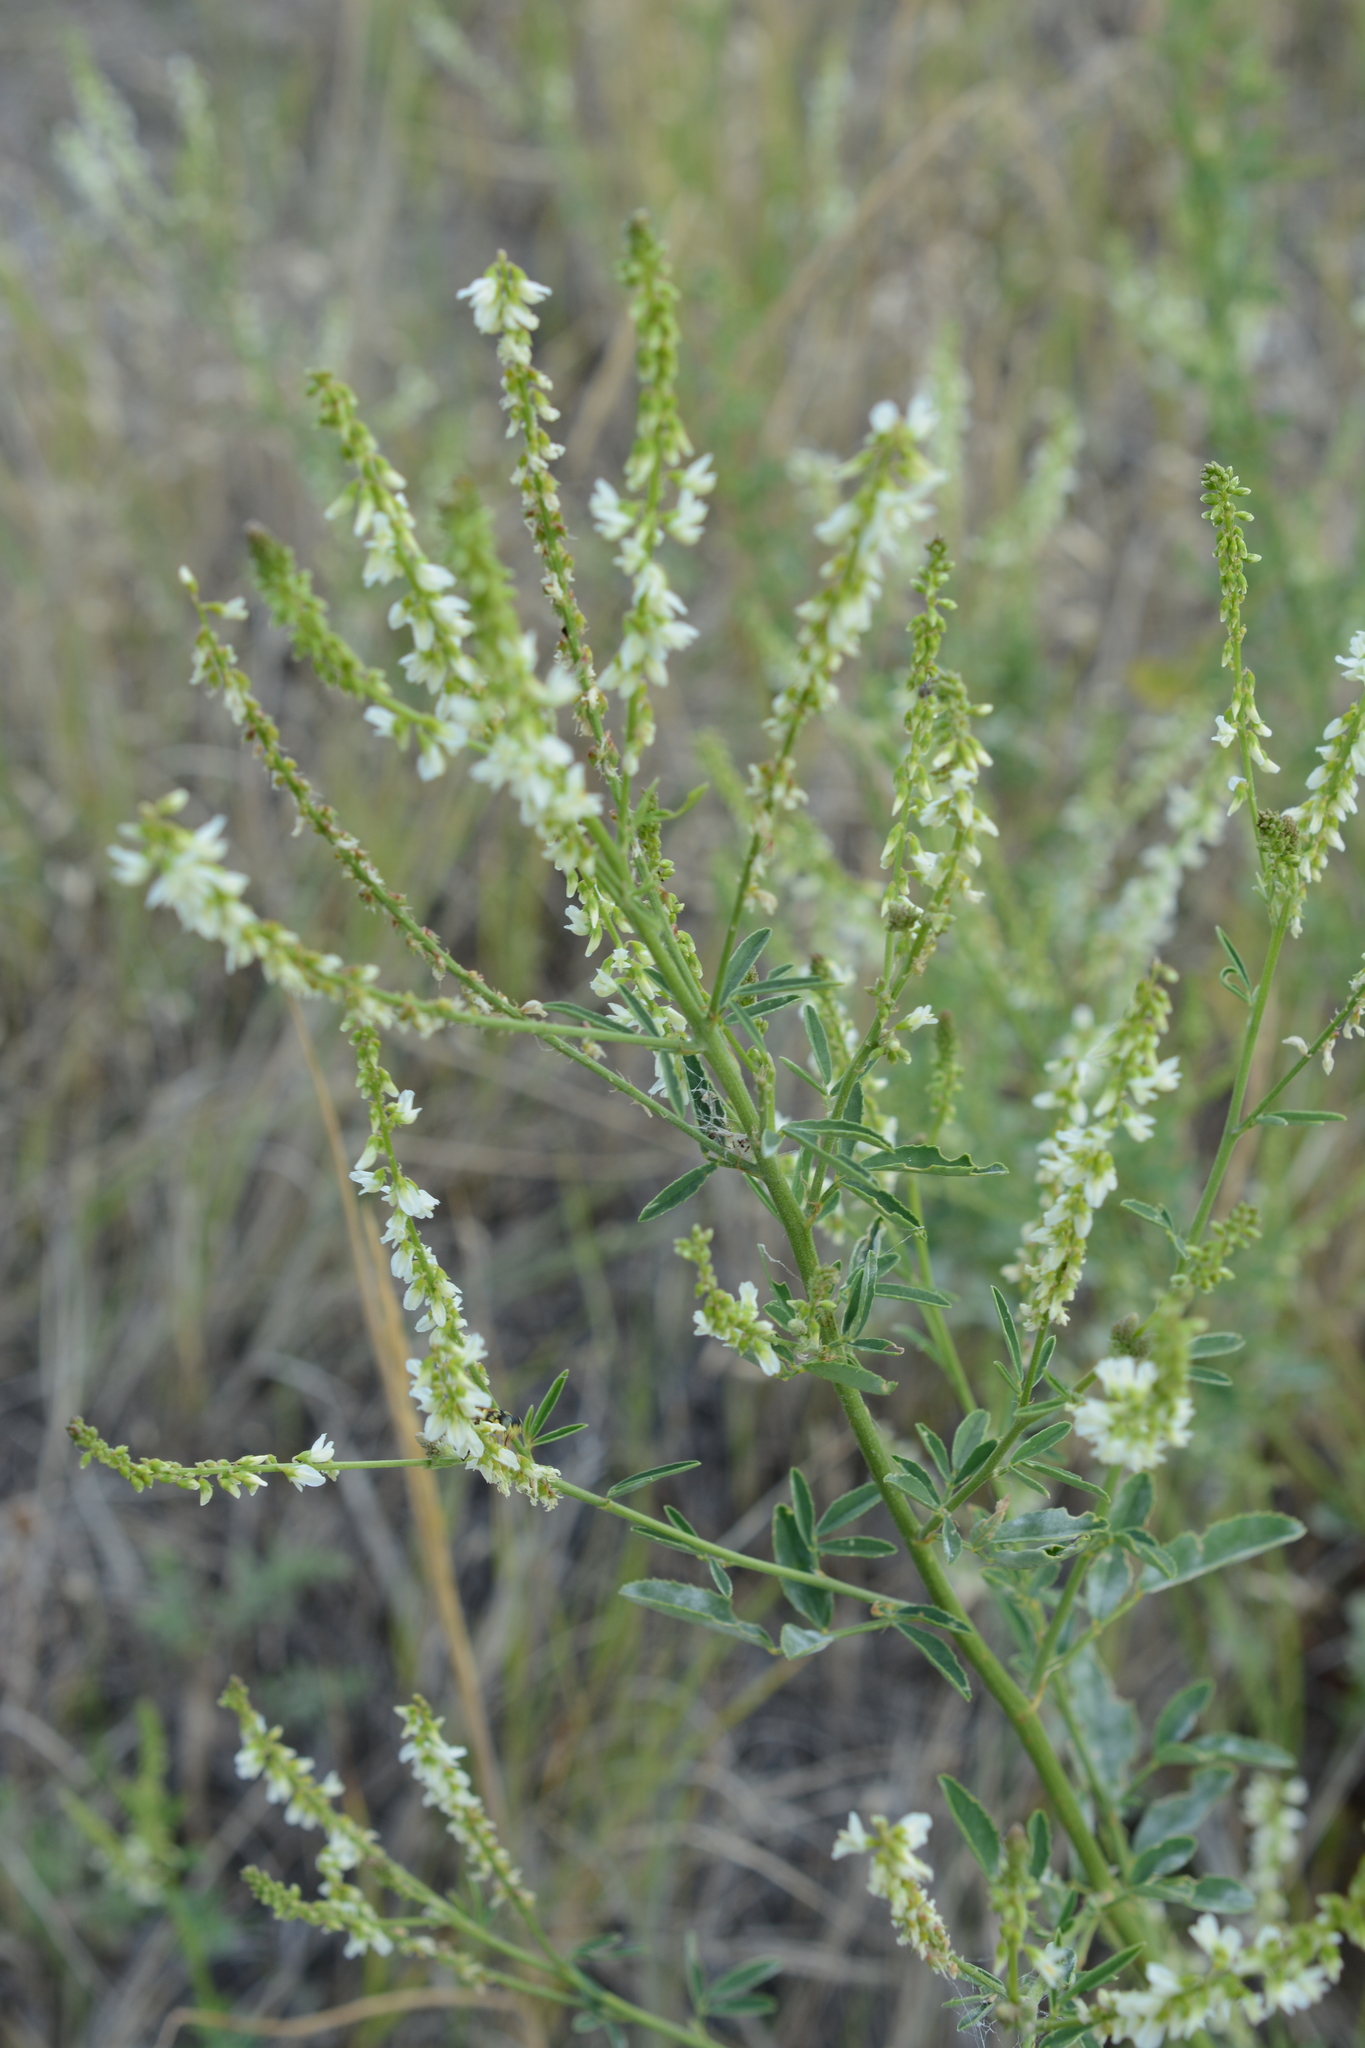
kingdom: Plantae
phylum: Tracheophyta
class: Magnoliopsida
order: Fabales
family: Fabaceae
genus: Melilotus
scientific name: Melilotus albus
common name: White melilot
